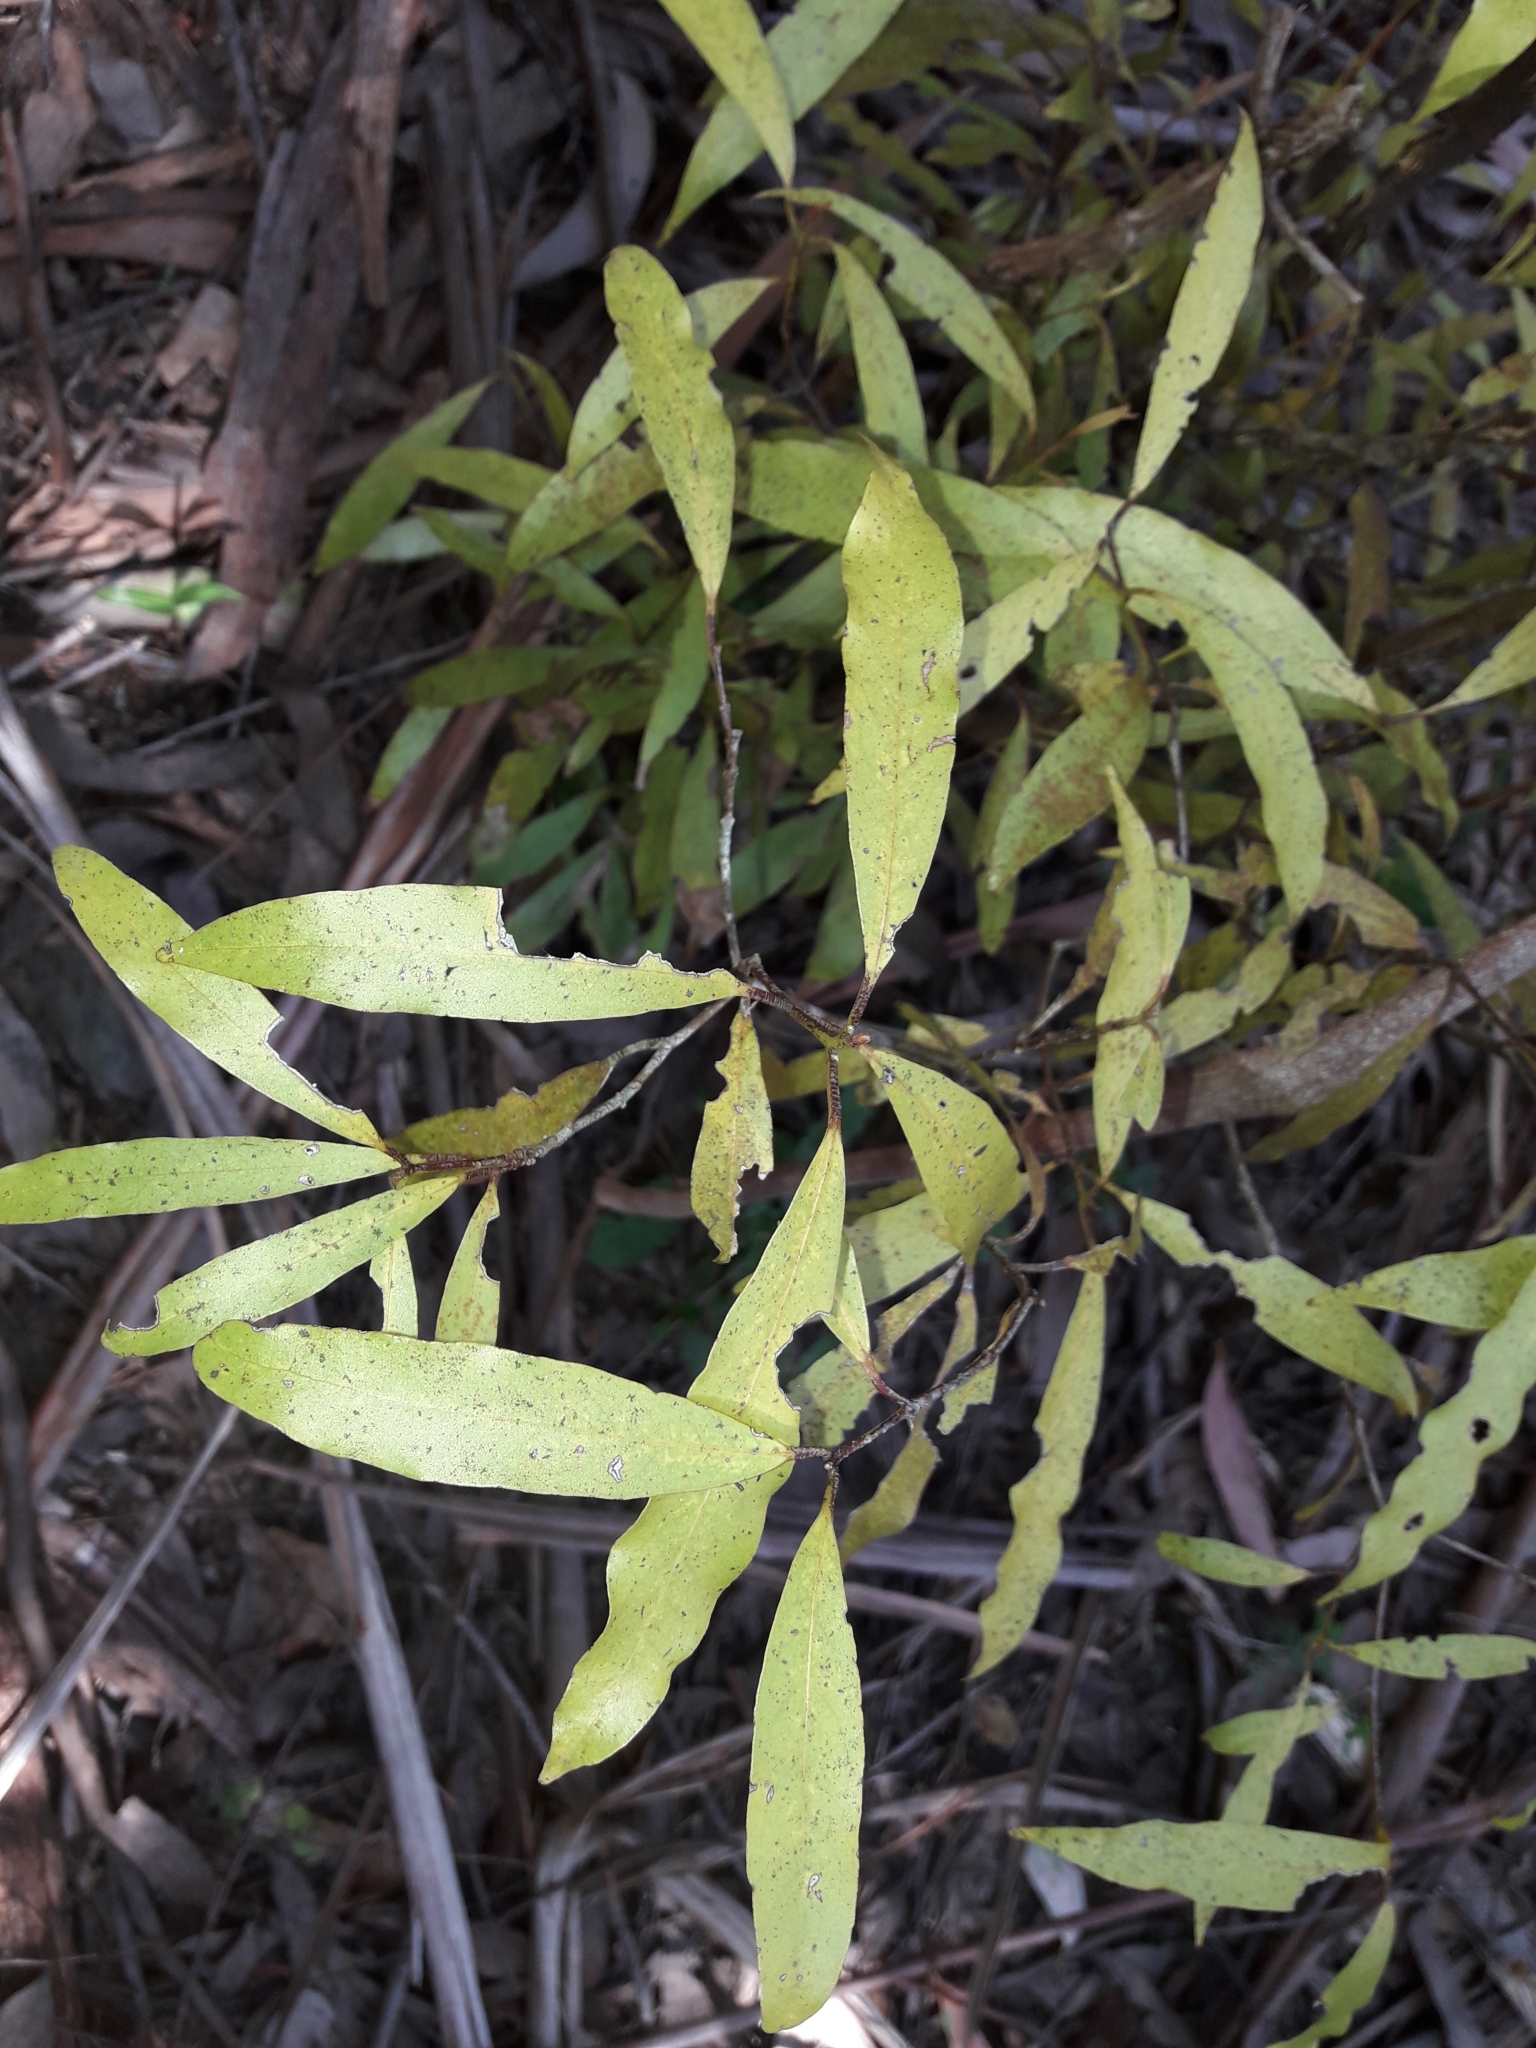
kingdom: Plantae
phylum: Tracheophyta
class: Magnoliopsida
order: Laurales
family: Lauraceae
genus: Beilschmiedia
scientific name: Beilschmiedia tawa
